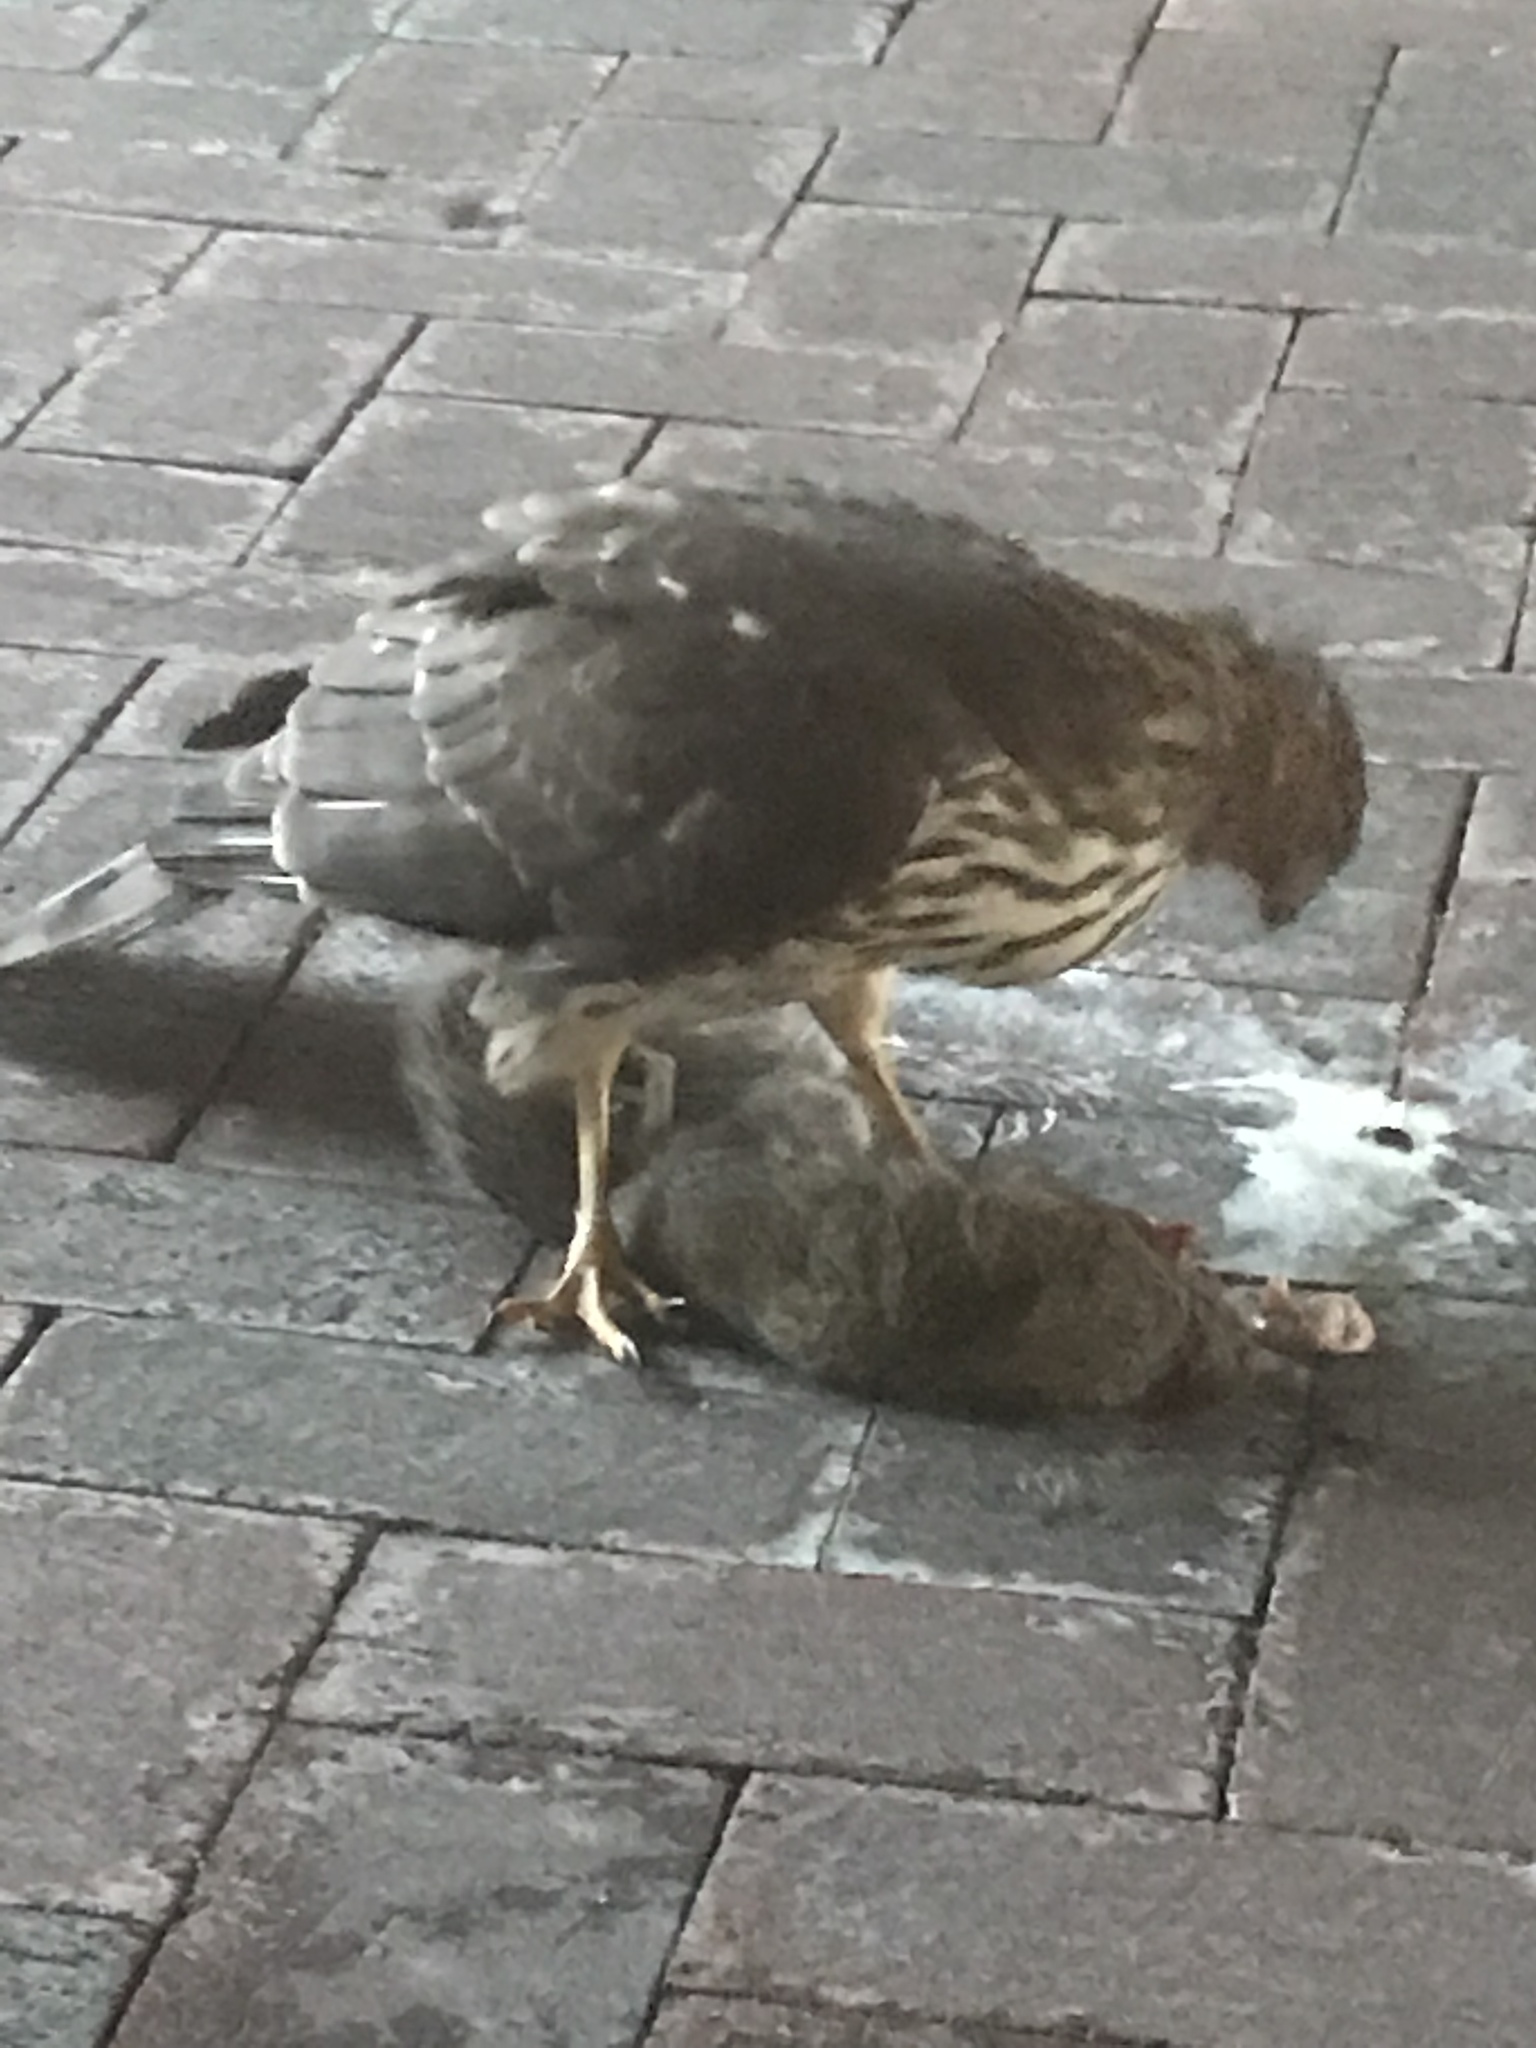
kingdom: Animalia
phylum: Chordata
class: Aves
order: Accipitriformes
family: Accipitridae
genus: Accipiter
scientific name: Accipiter cooperii
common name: Cooper's hawk
